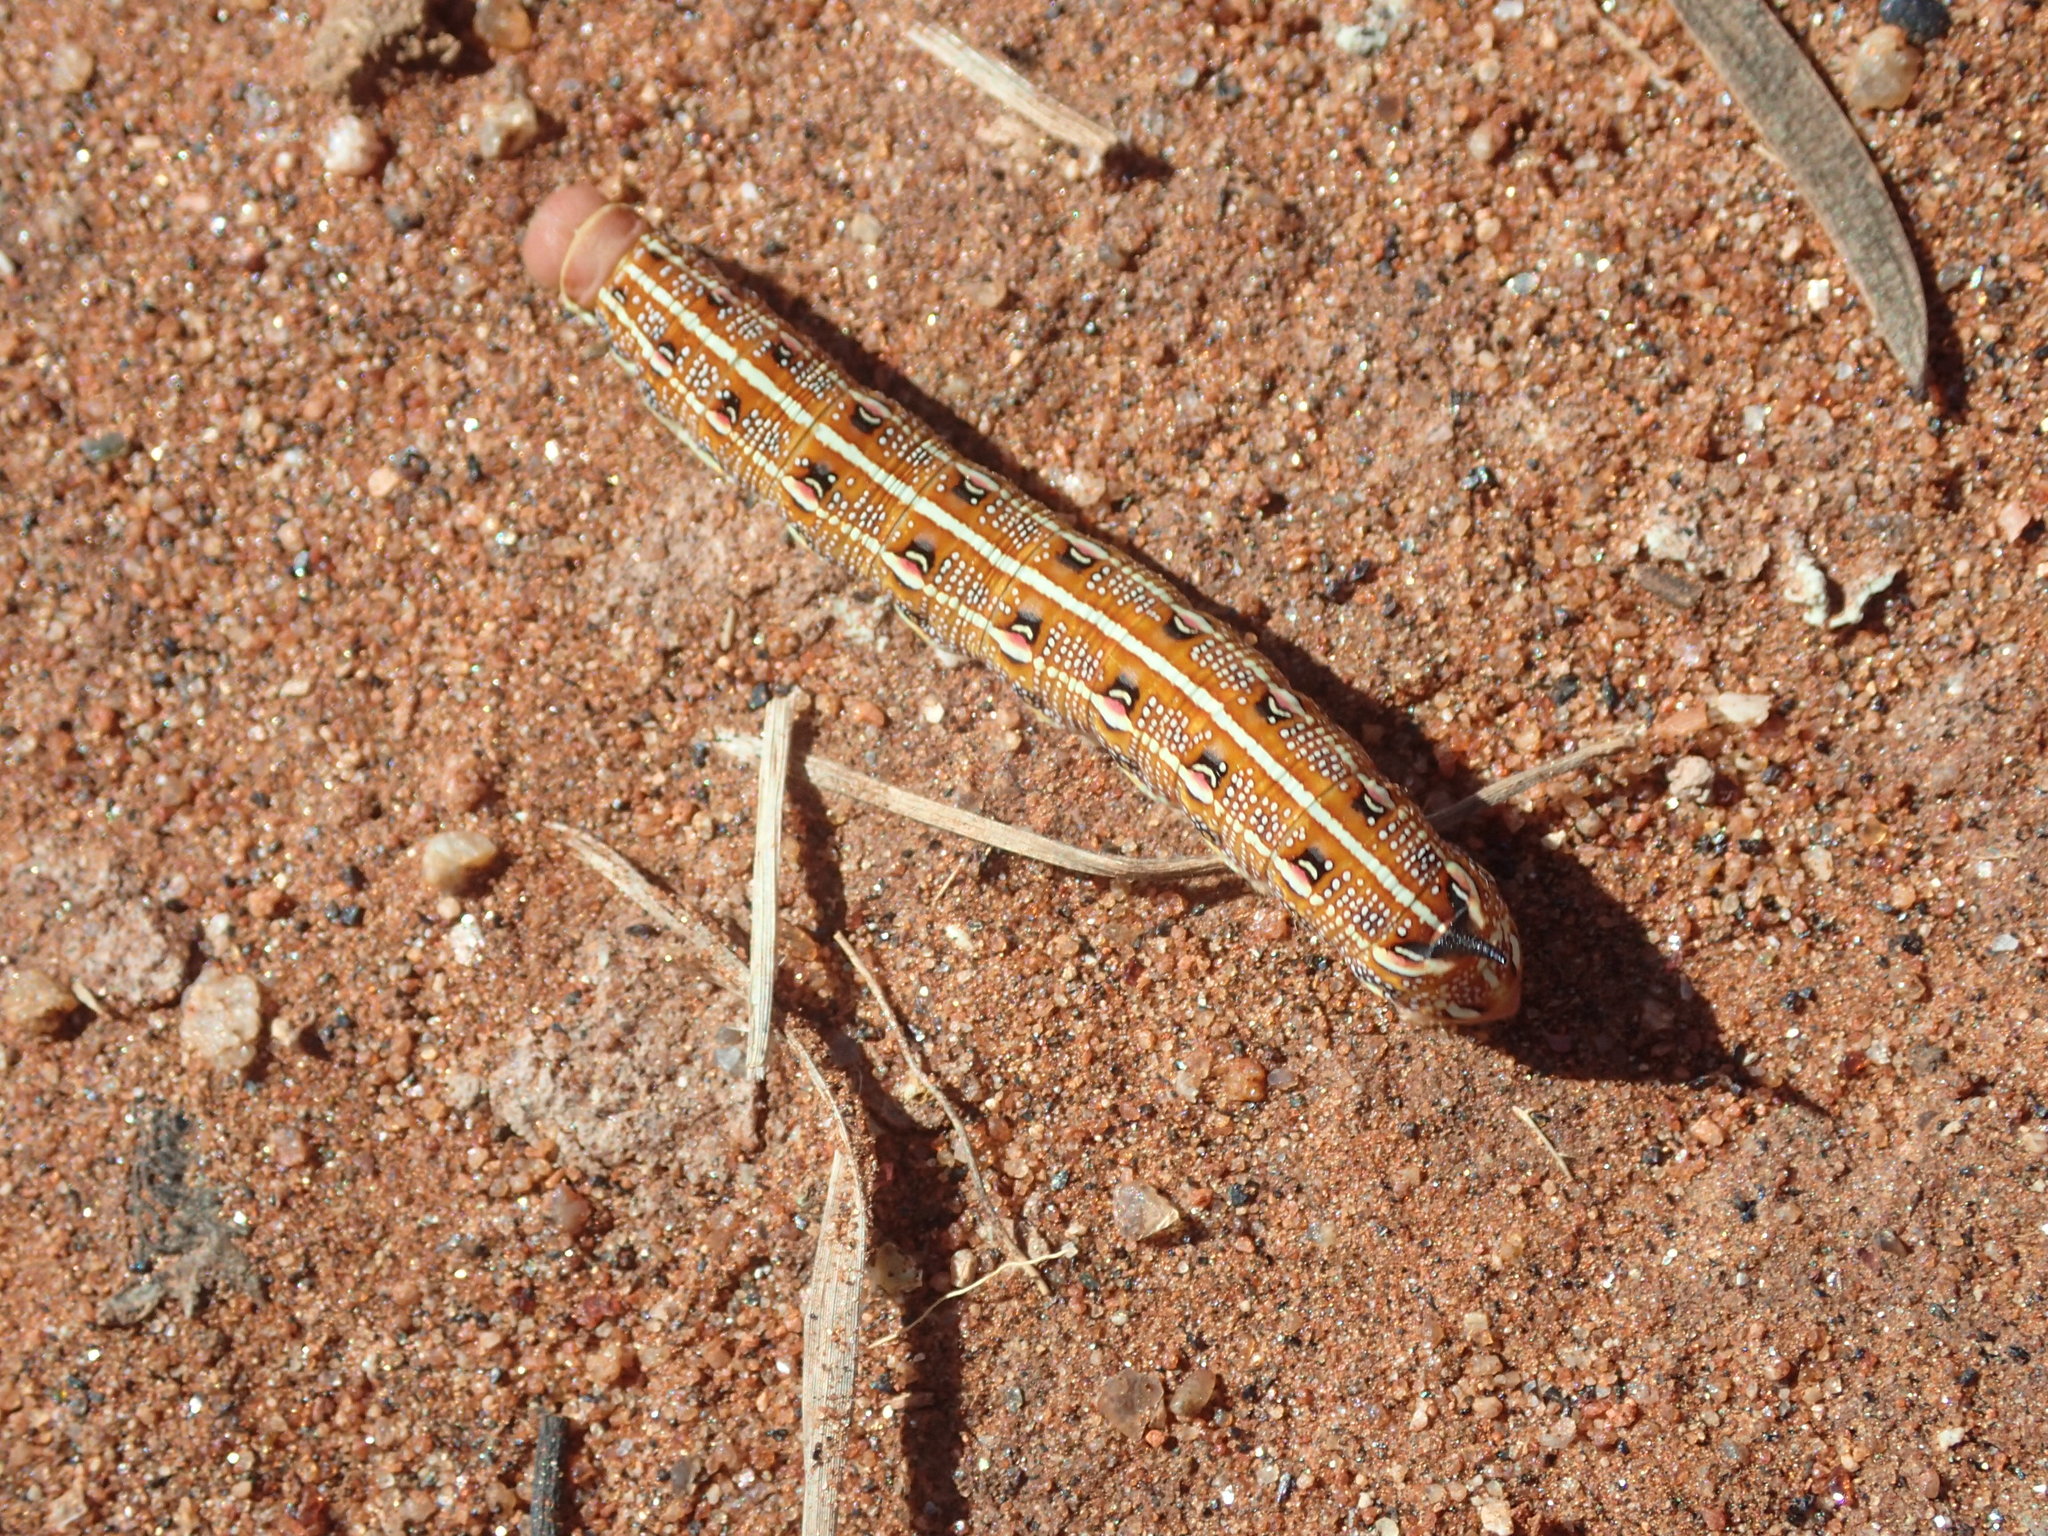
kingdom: Animalia
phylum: Arthropoda
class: Insecta
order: Lepidoptera
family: Sphingidae
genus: Hyles
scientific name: Hyles livornicoides
